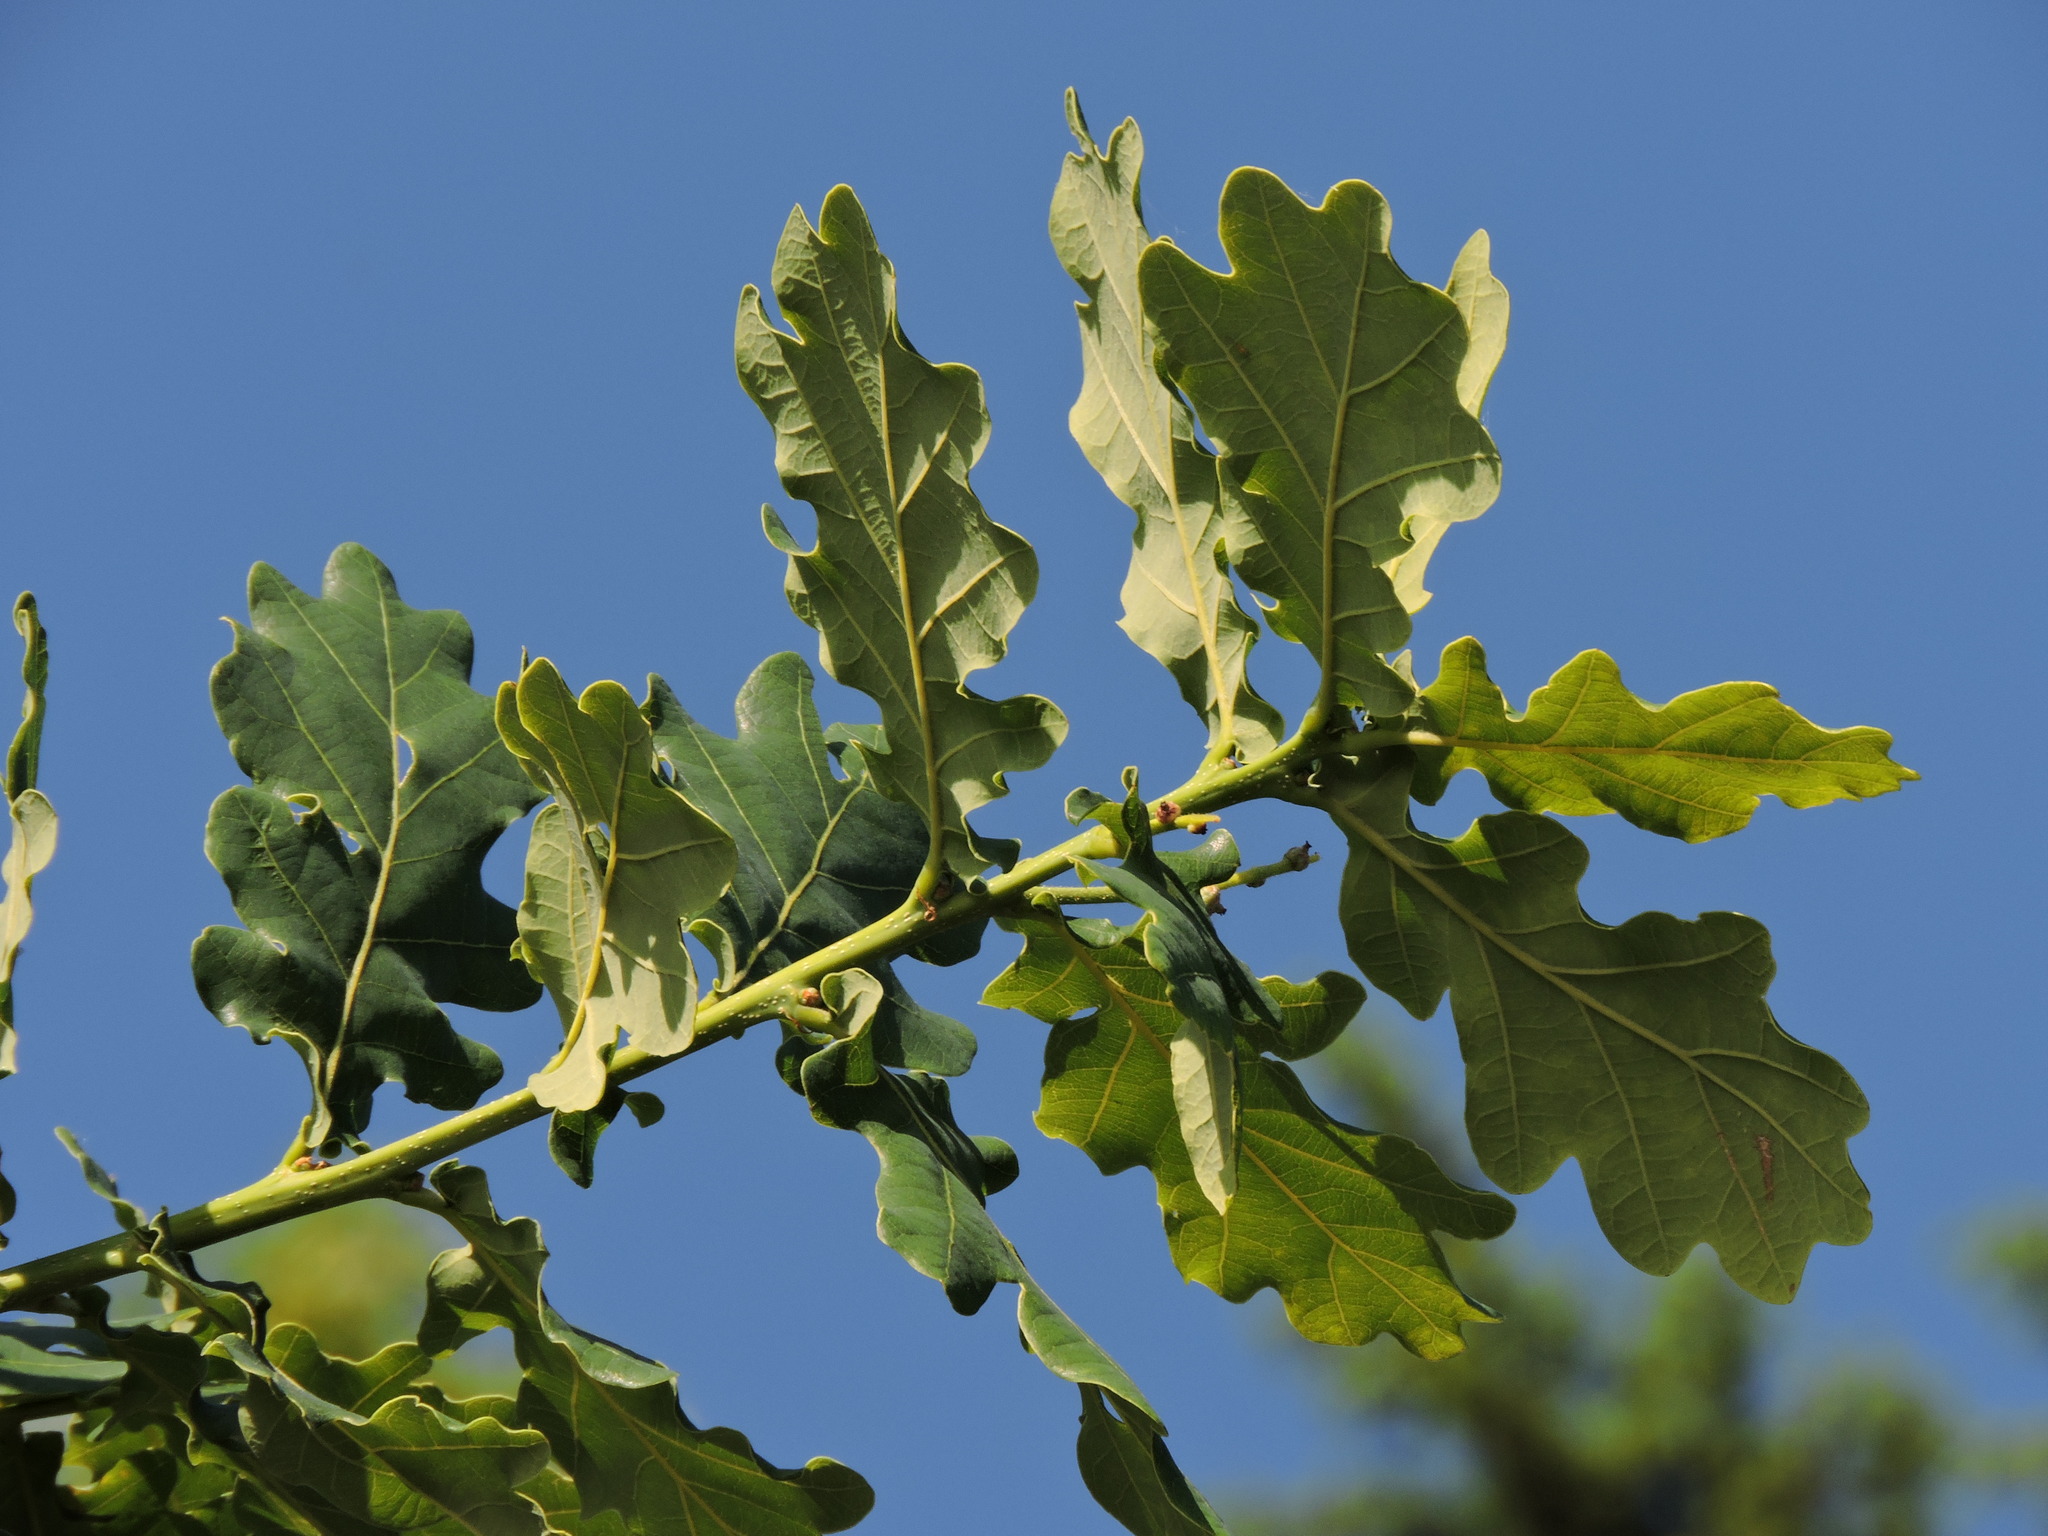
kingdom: Plantae
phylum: Tracheophyta
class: Magnoliopsida
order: Fagales
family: Fagaceae
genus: Quercus
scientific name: Quercus robur
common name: Pedunculate oak
